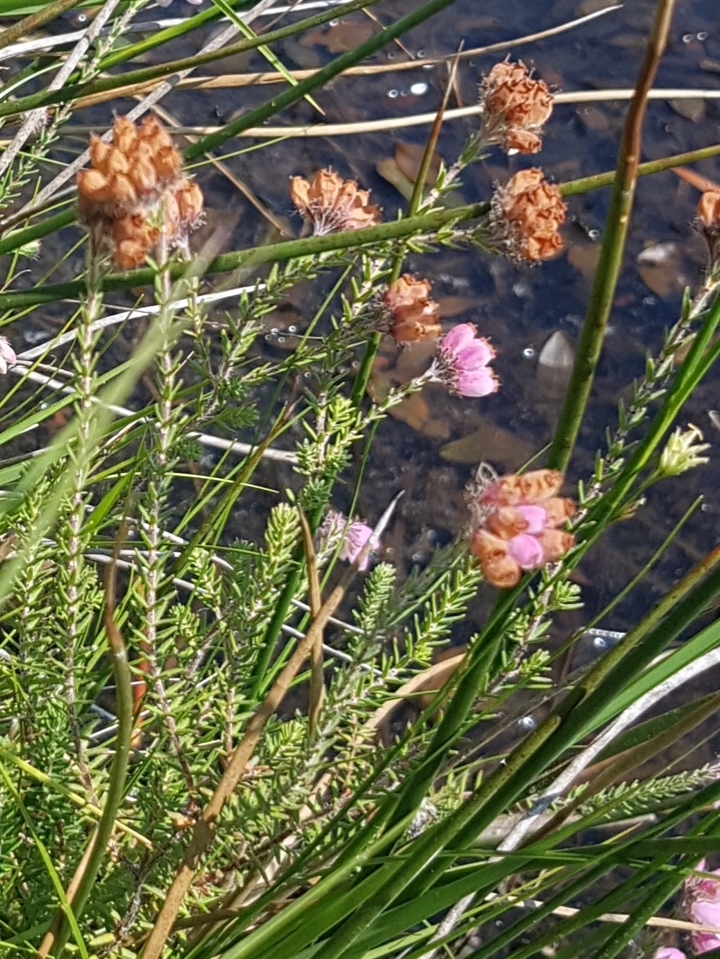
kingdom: Plantae
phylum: Tracheophyta
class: Magnoliopsida
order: Ericales
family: Ericaceae
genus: Erica
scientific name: Erica tetralix
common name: Cross-leaved heath
